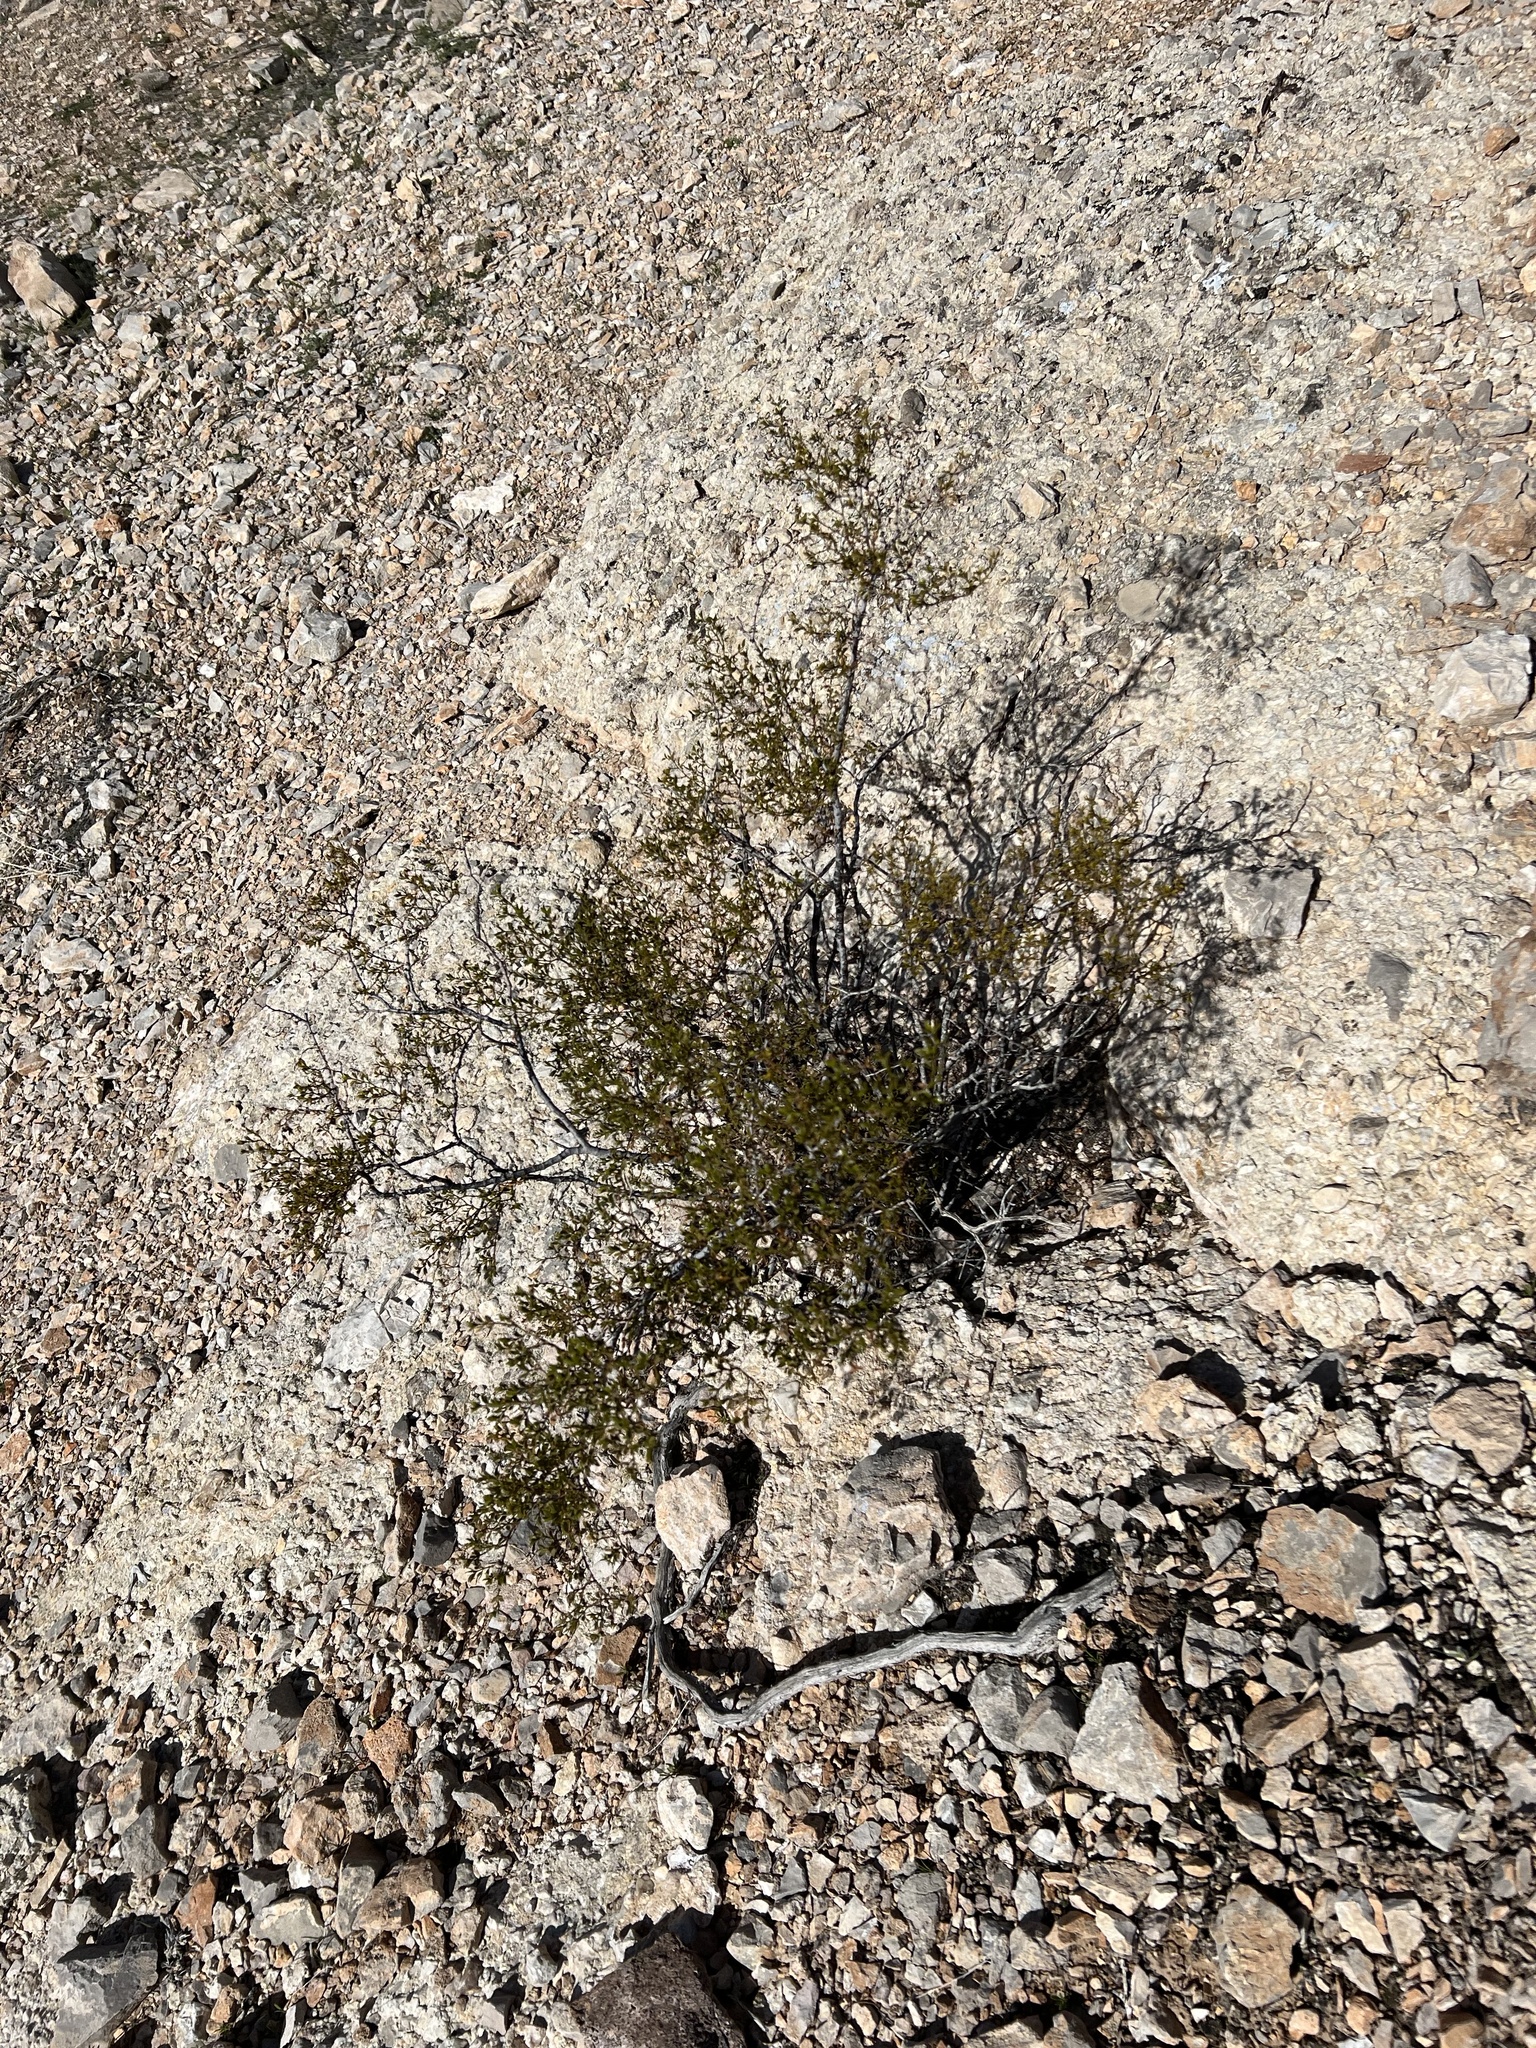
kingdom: Plantae
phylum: Tracheophyta
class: Magnoliopsida
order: Zygophyllales
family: Zygophyllaceae
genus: Larrea
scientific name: Larrea tridentata
